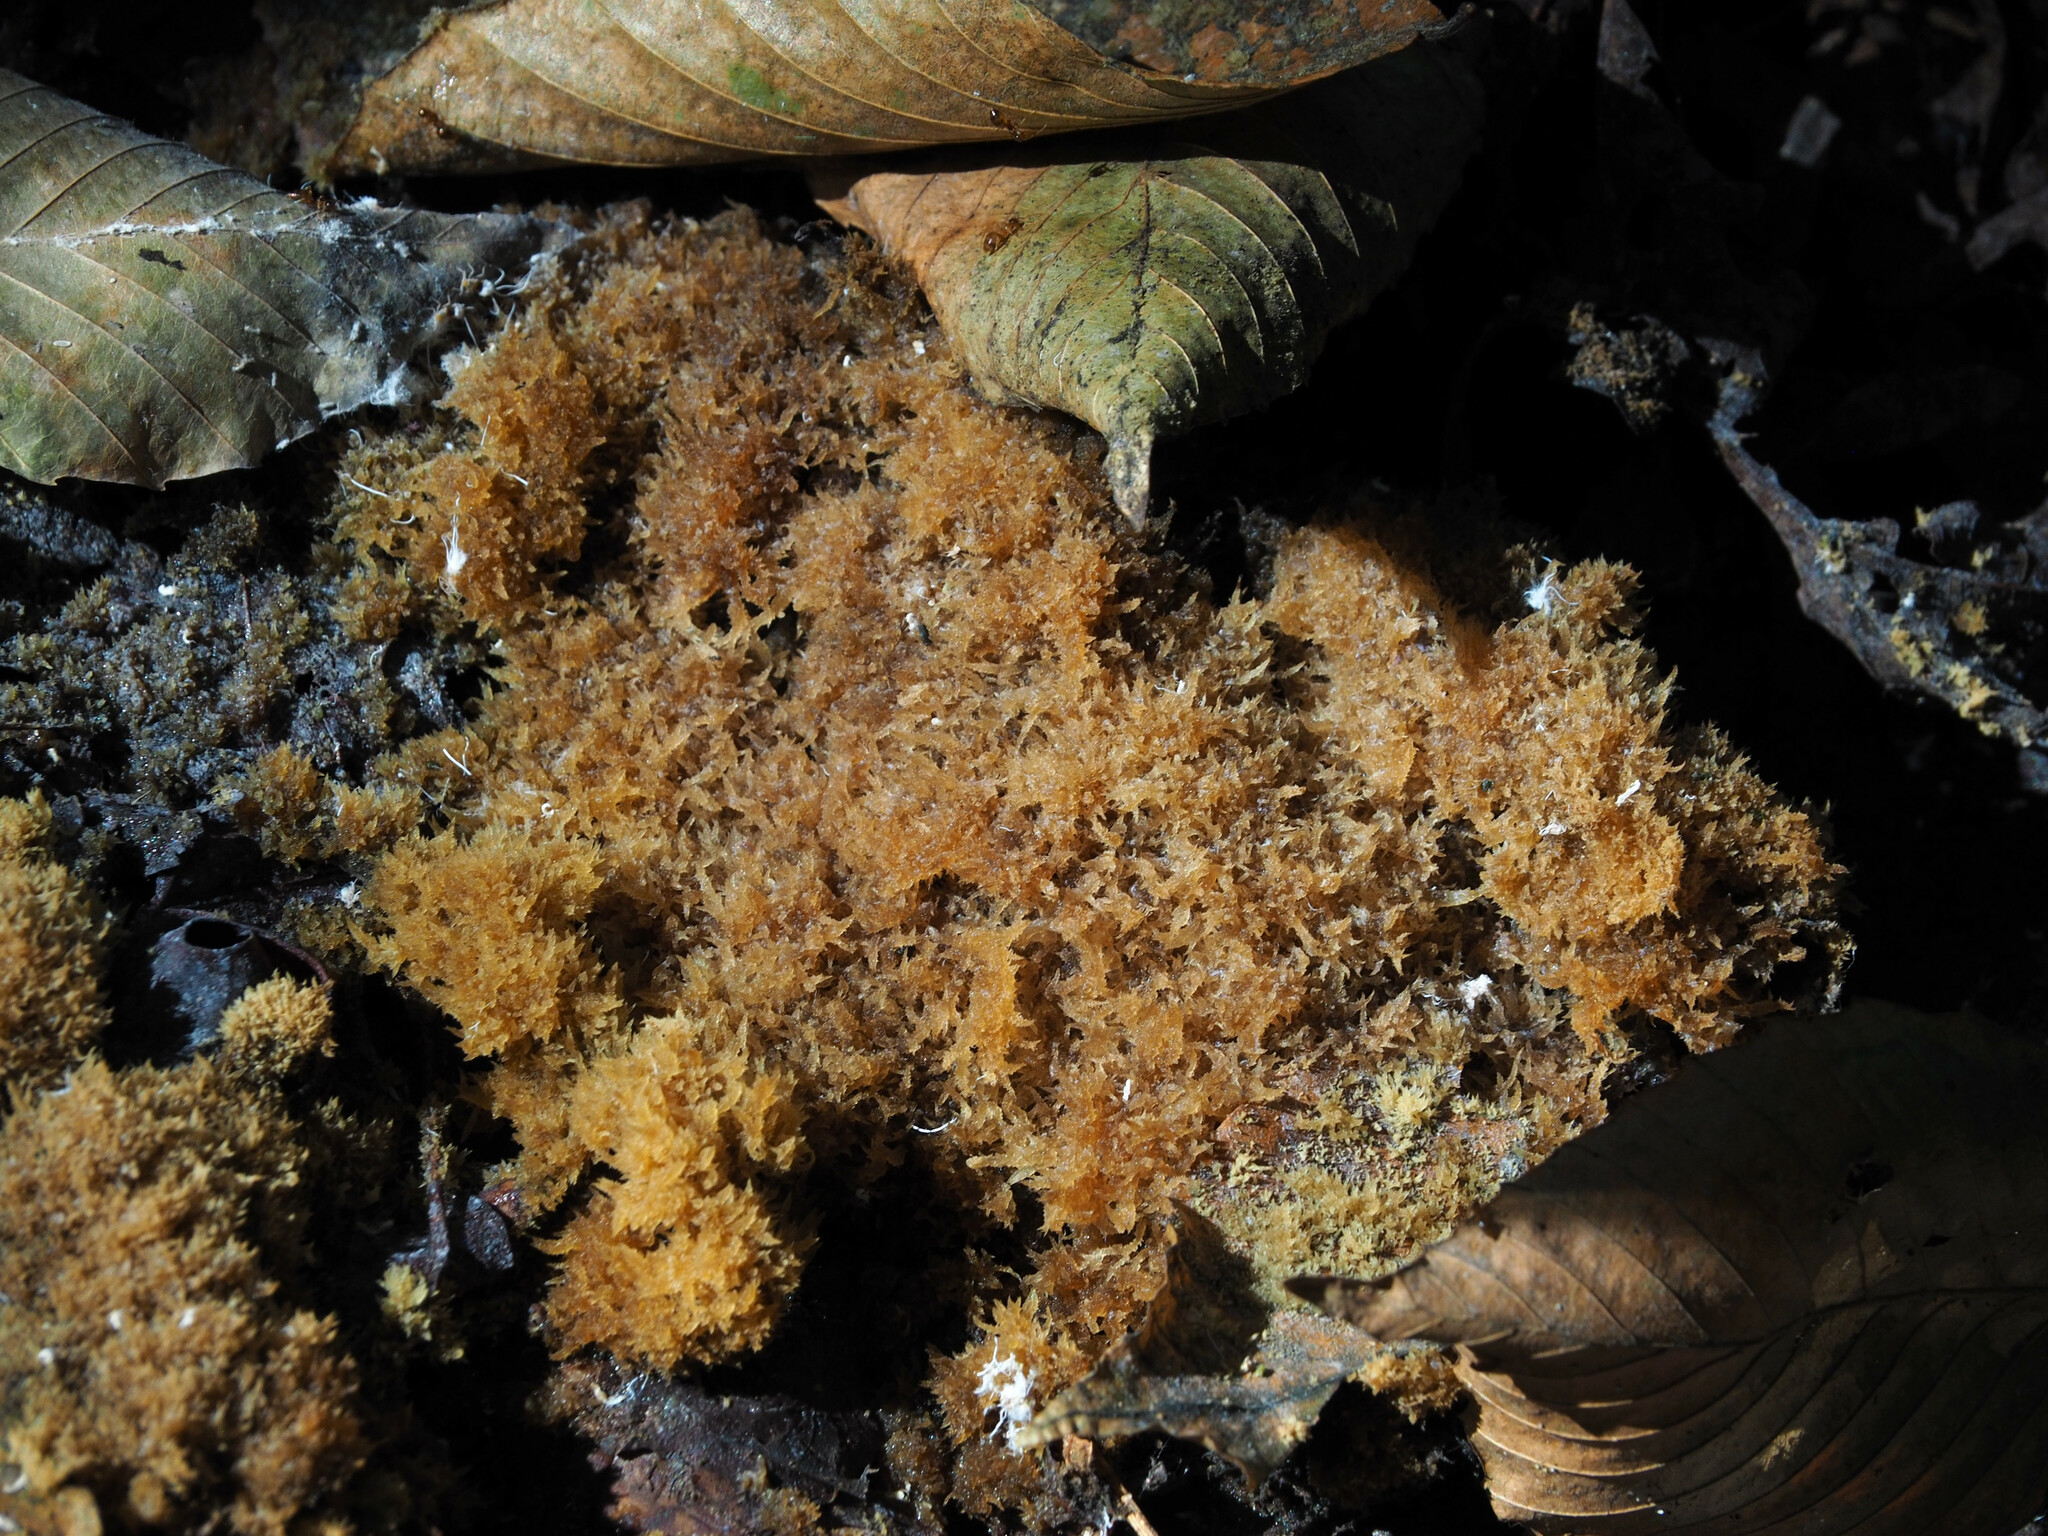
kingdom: Fungi
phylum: Ascomycota
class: Dothideomycetes
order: Capnodiales
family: Capnodiaceae
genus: Scorias
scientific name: Scorias spongiosa
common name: Black sooty mold
